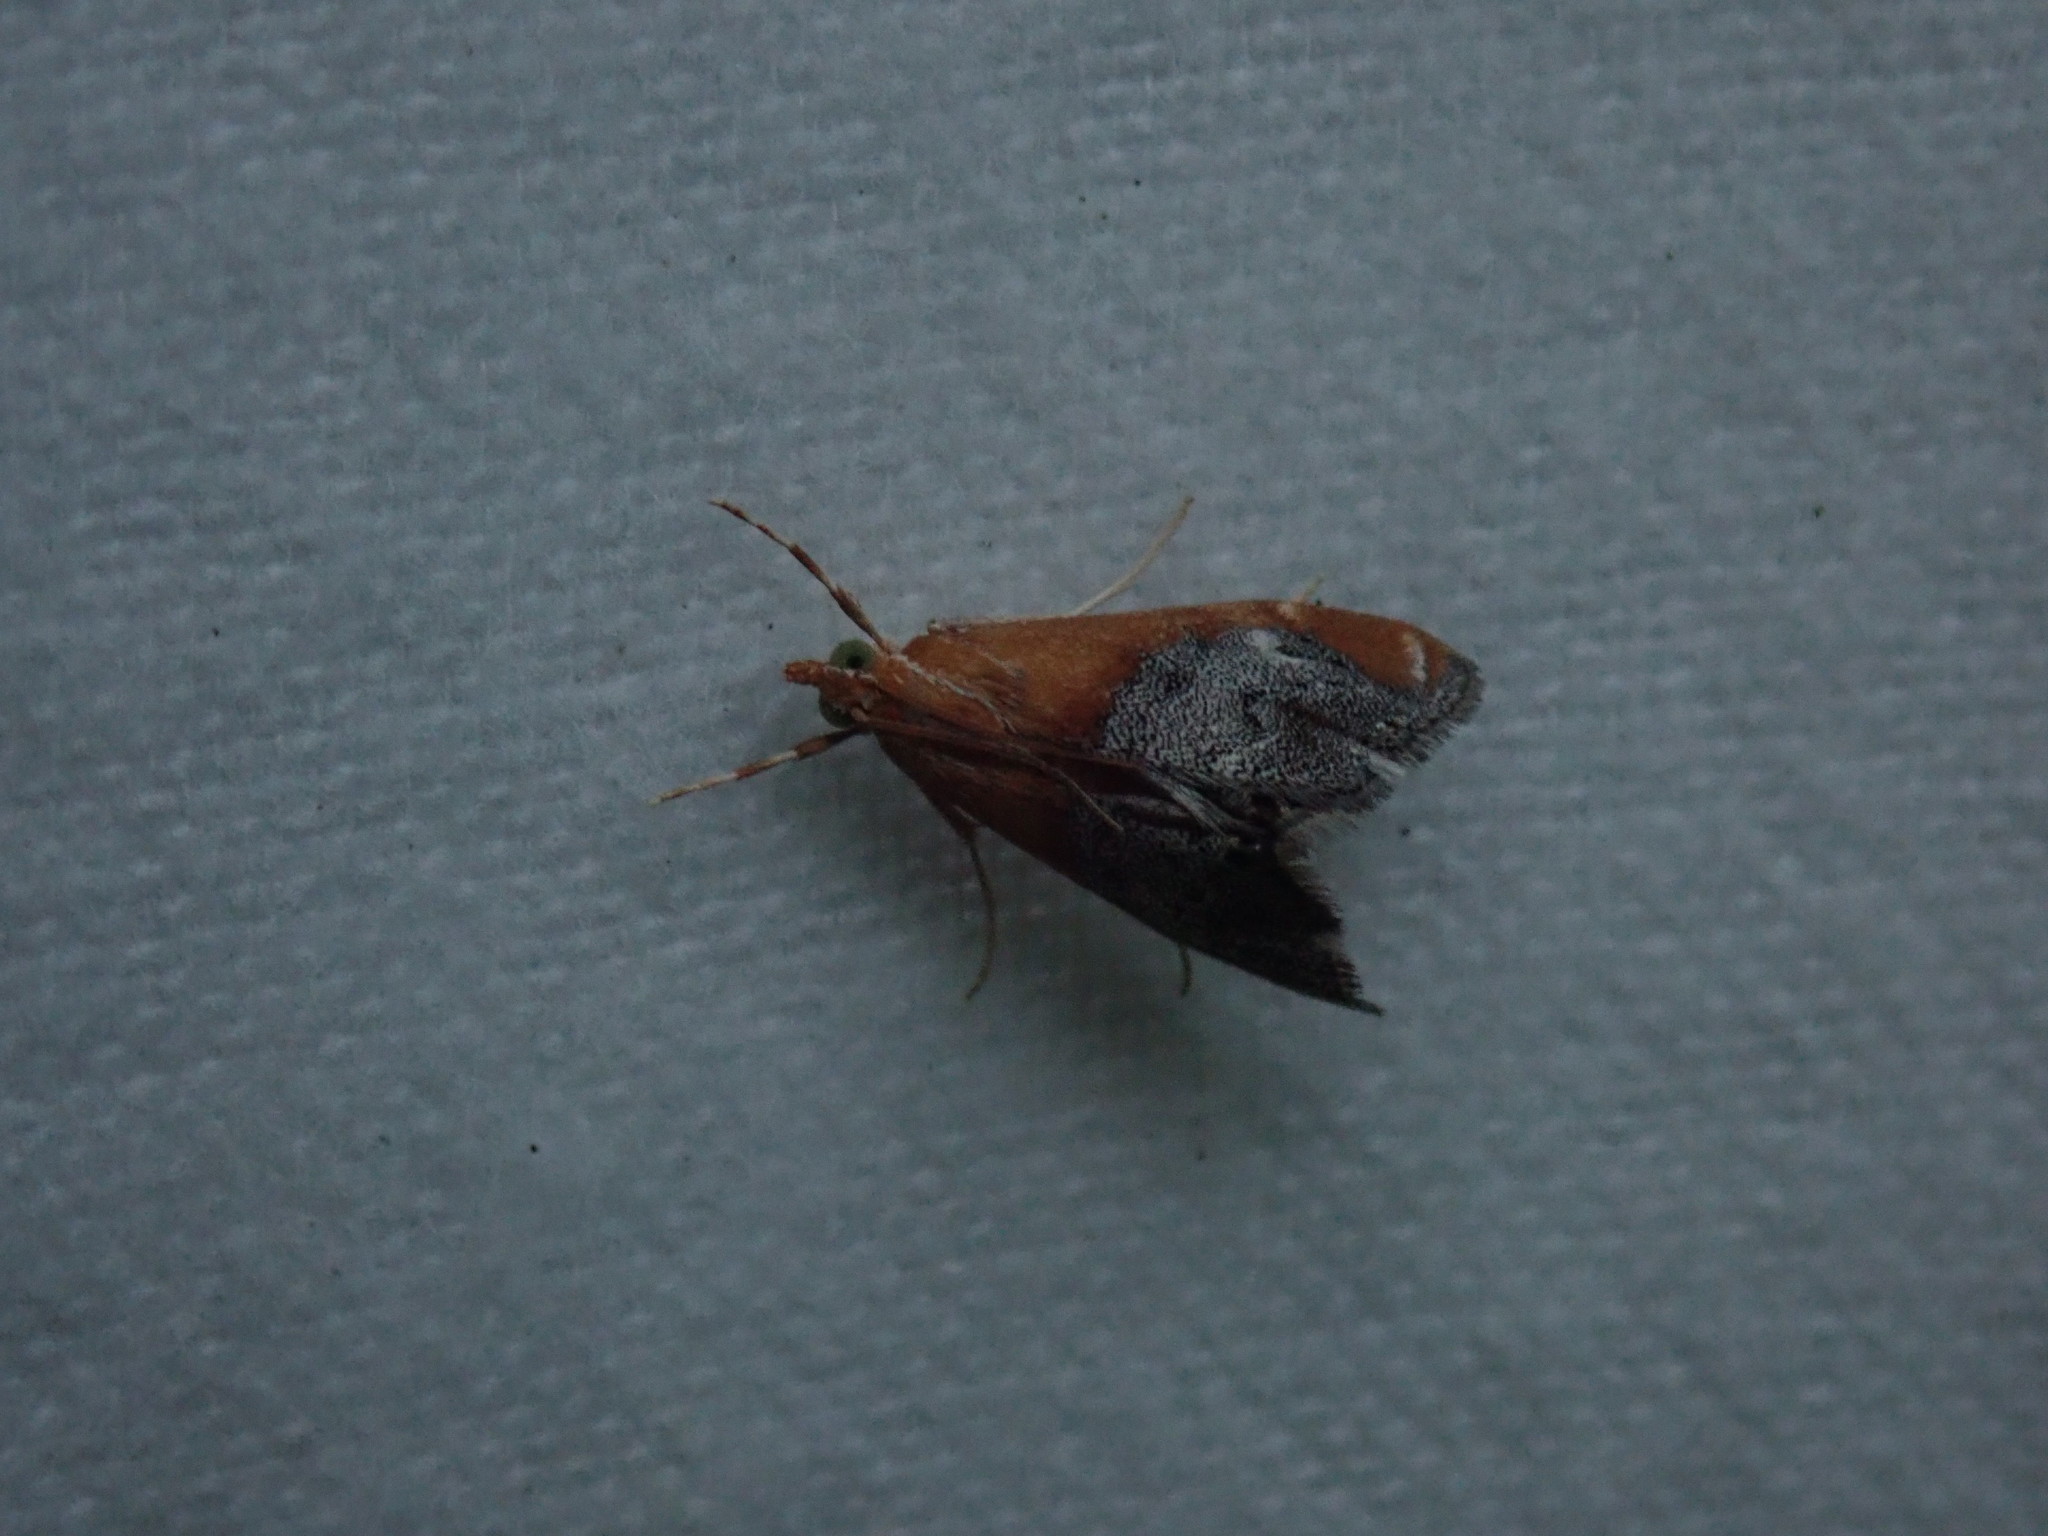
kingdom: Animalia
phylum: Arthropoda
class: Insecta
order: Lepidoptera
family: Crambidae
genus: Chalcoela
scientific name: Chalcoela iphitalis
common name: Sooty-winged chalcoela moth
